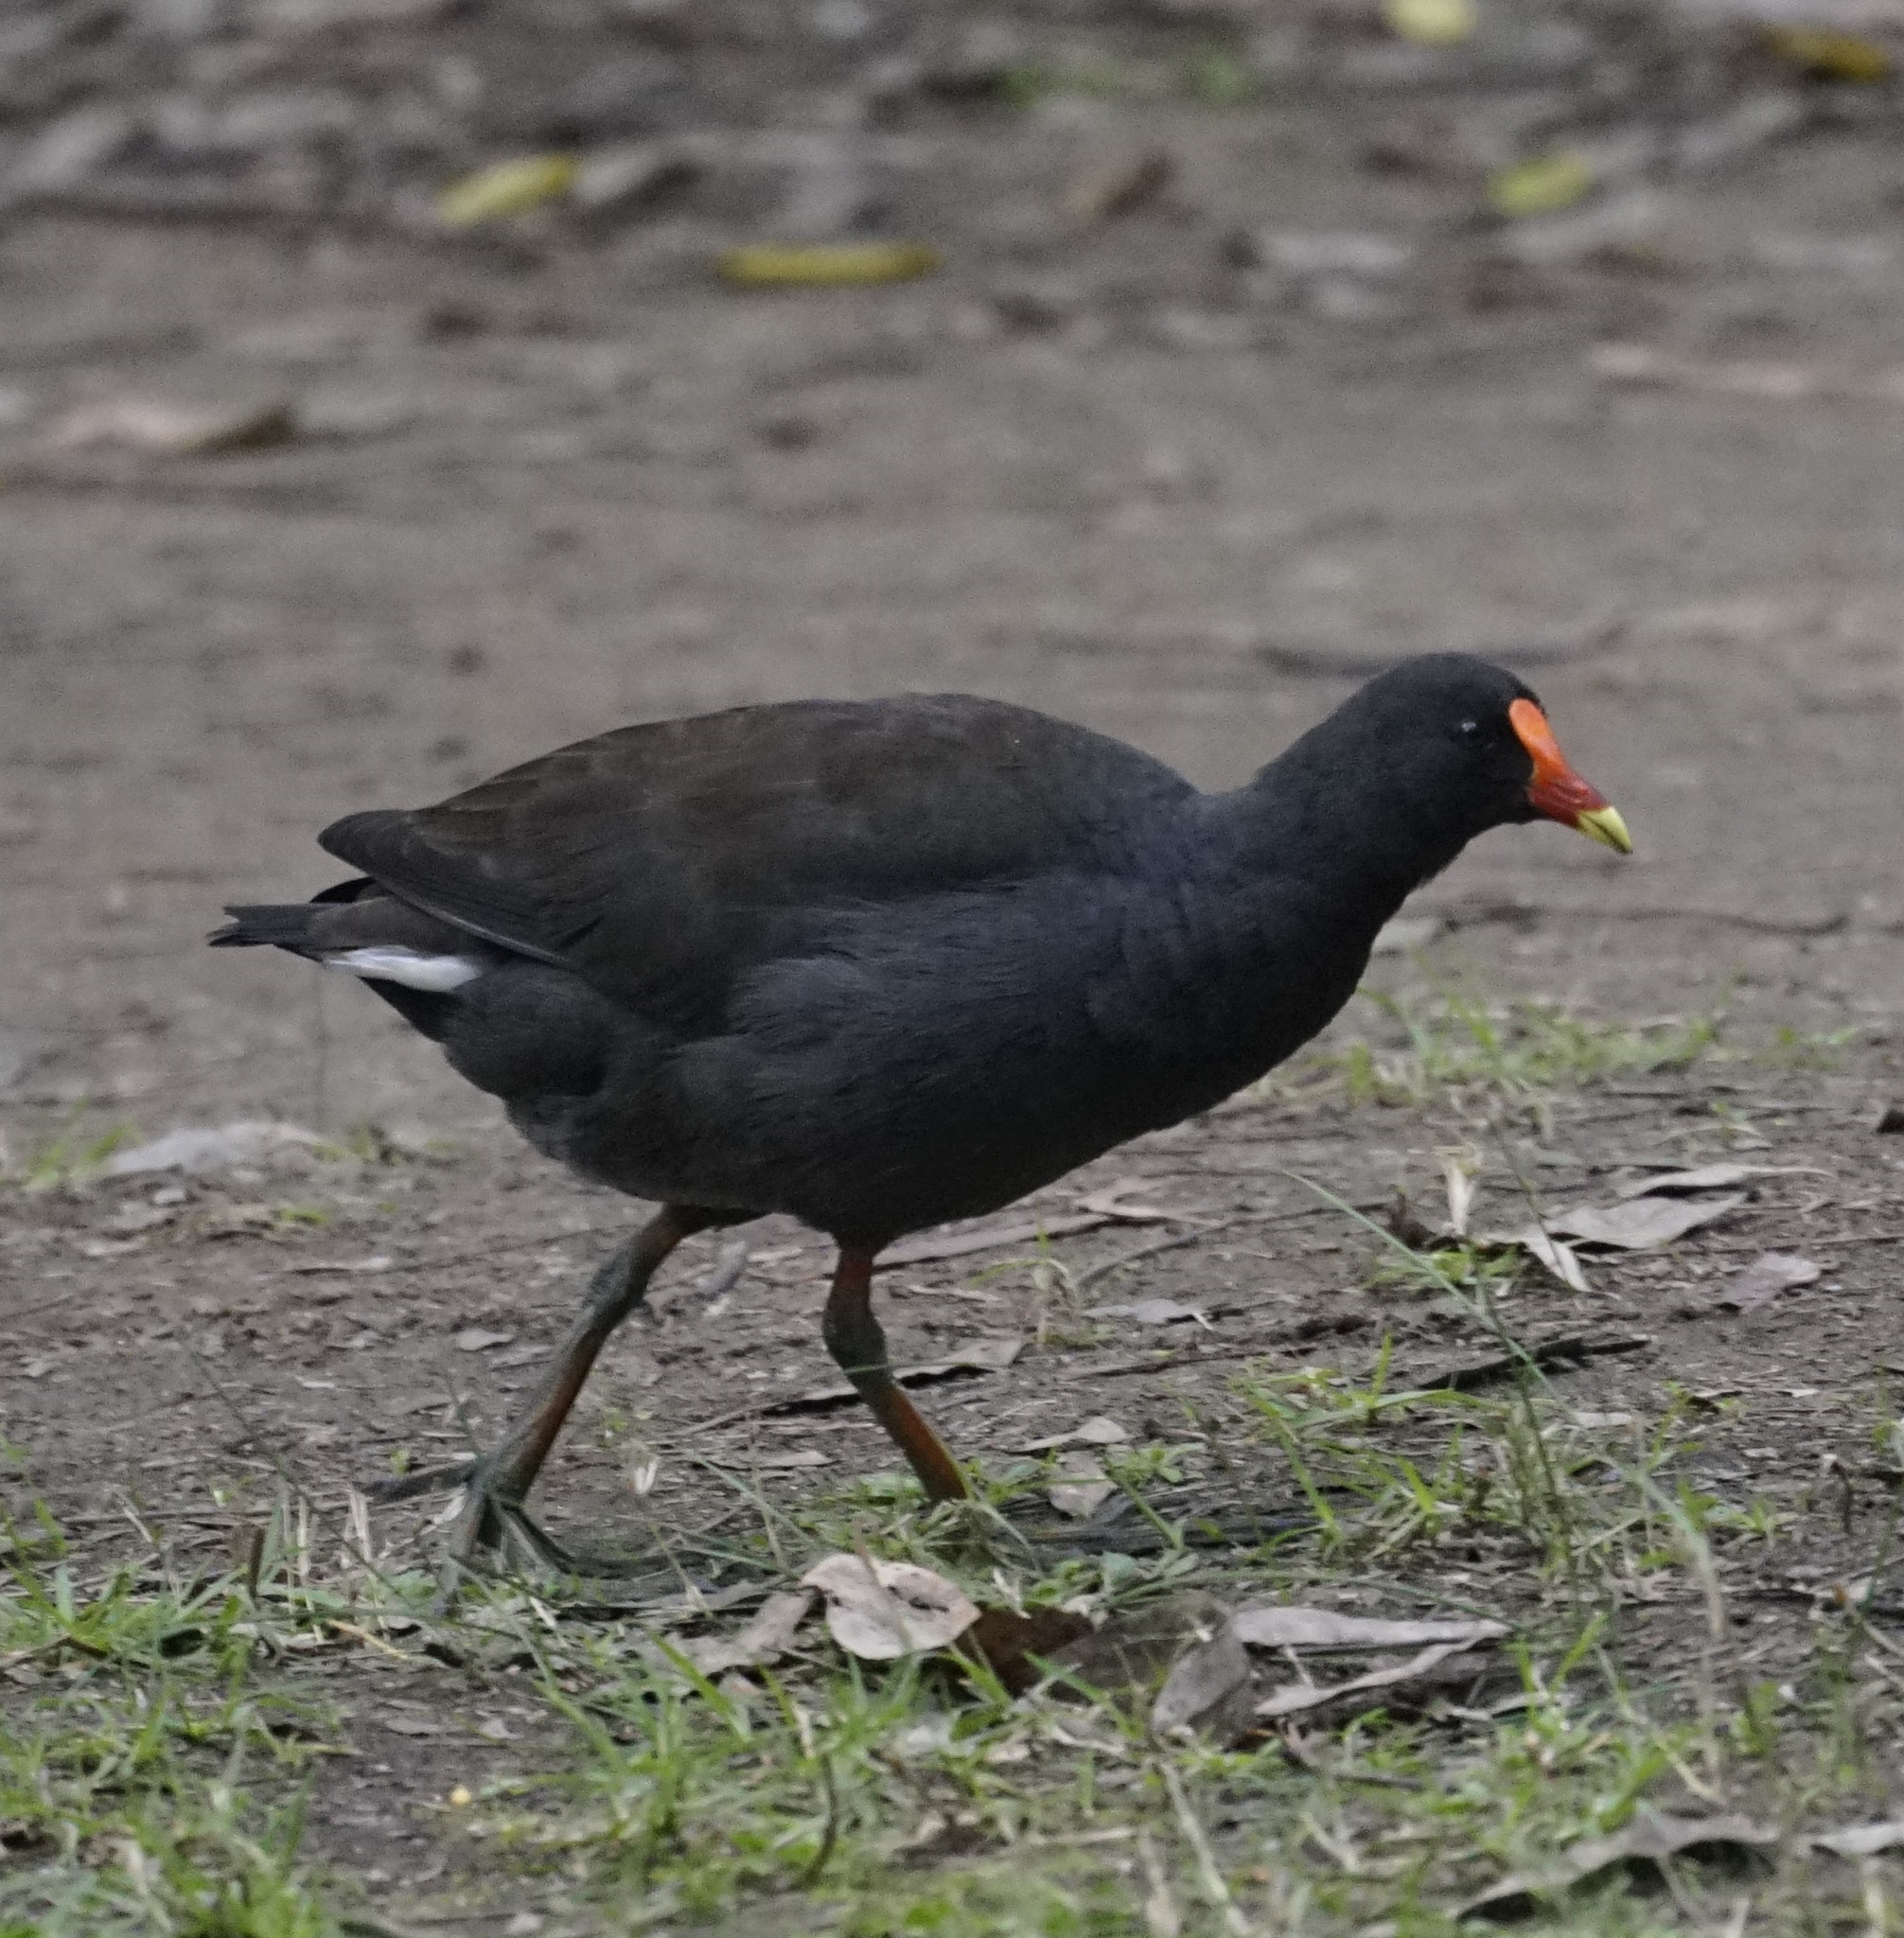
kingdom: Animalia
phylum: Chordata
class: Aves
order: Gruiformes
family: Rallidae
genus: Gallinula
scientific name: Gallinula tenebrosa
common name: Dusky moorhen
